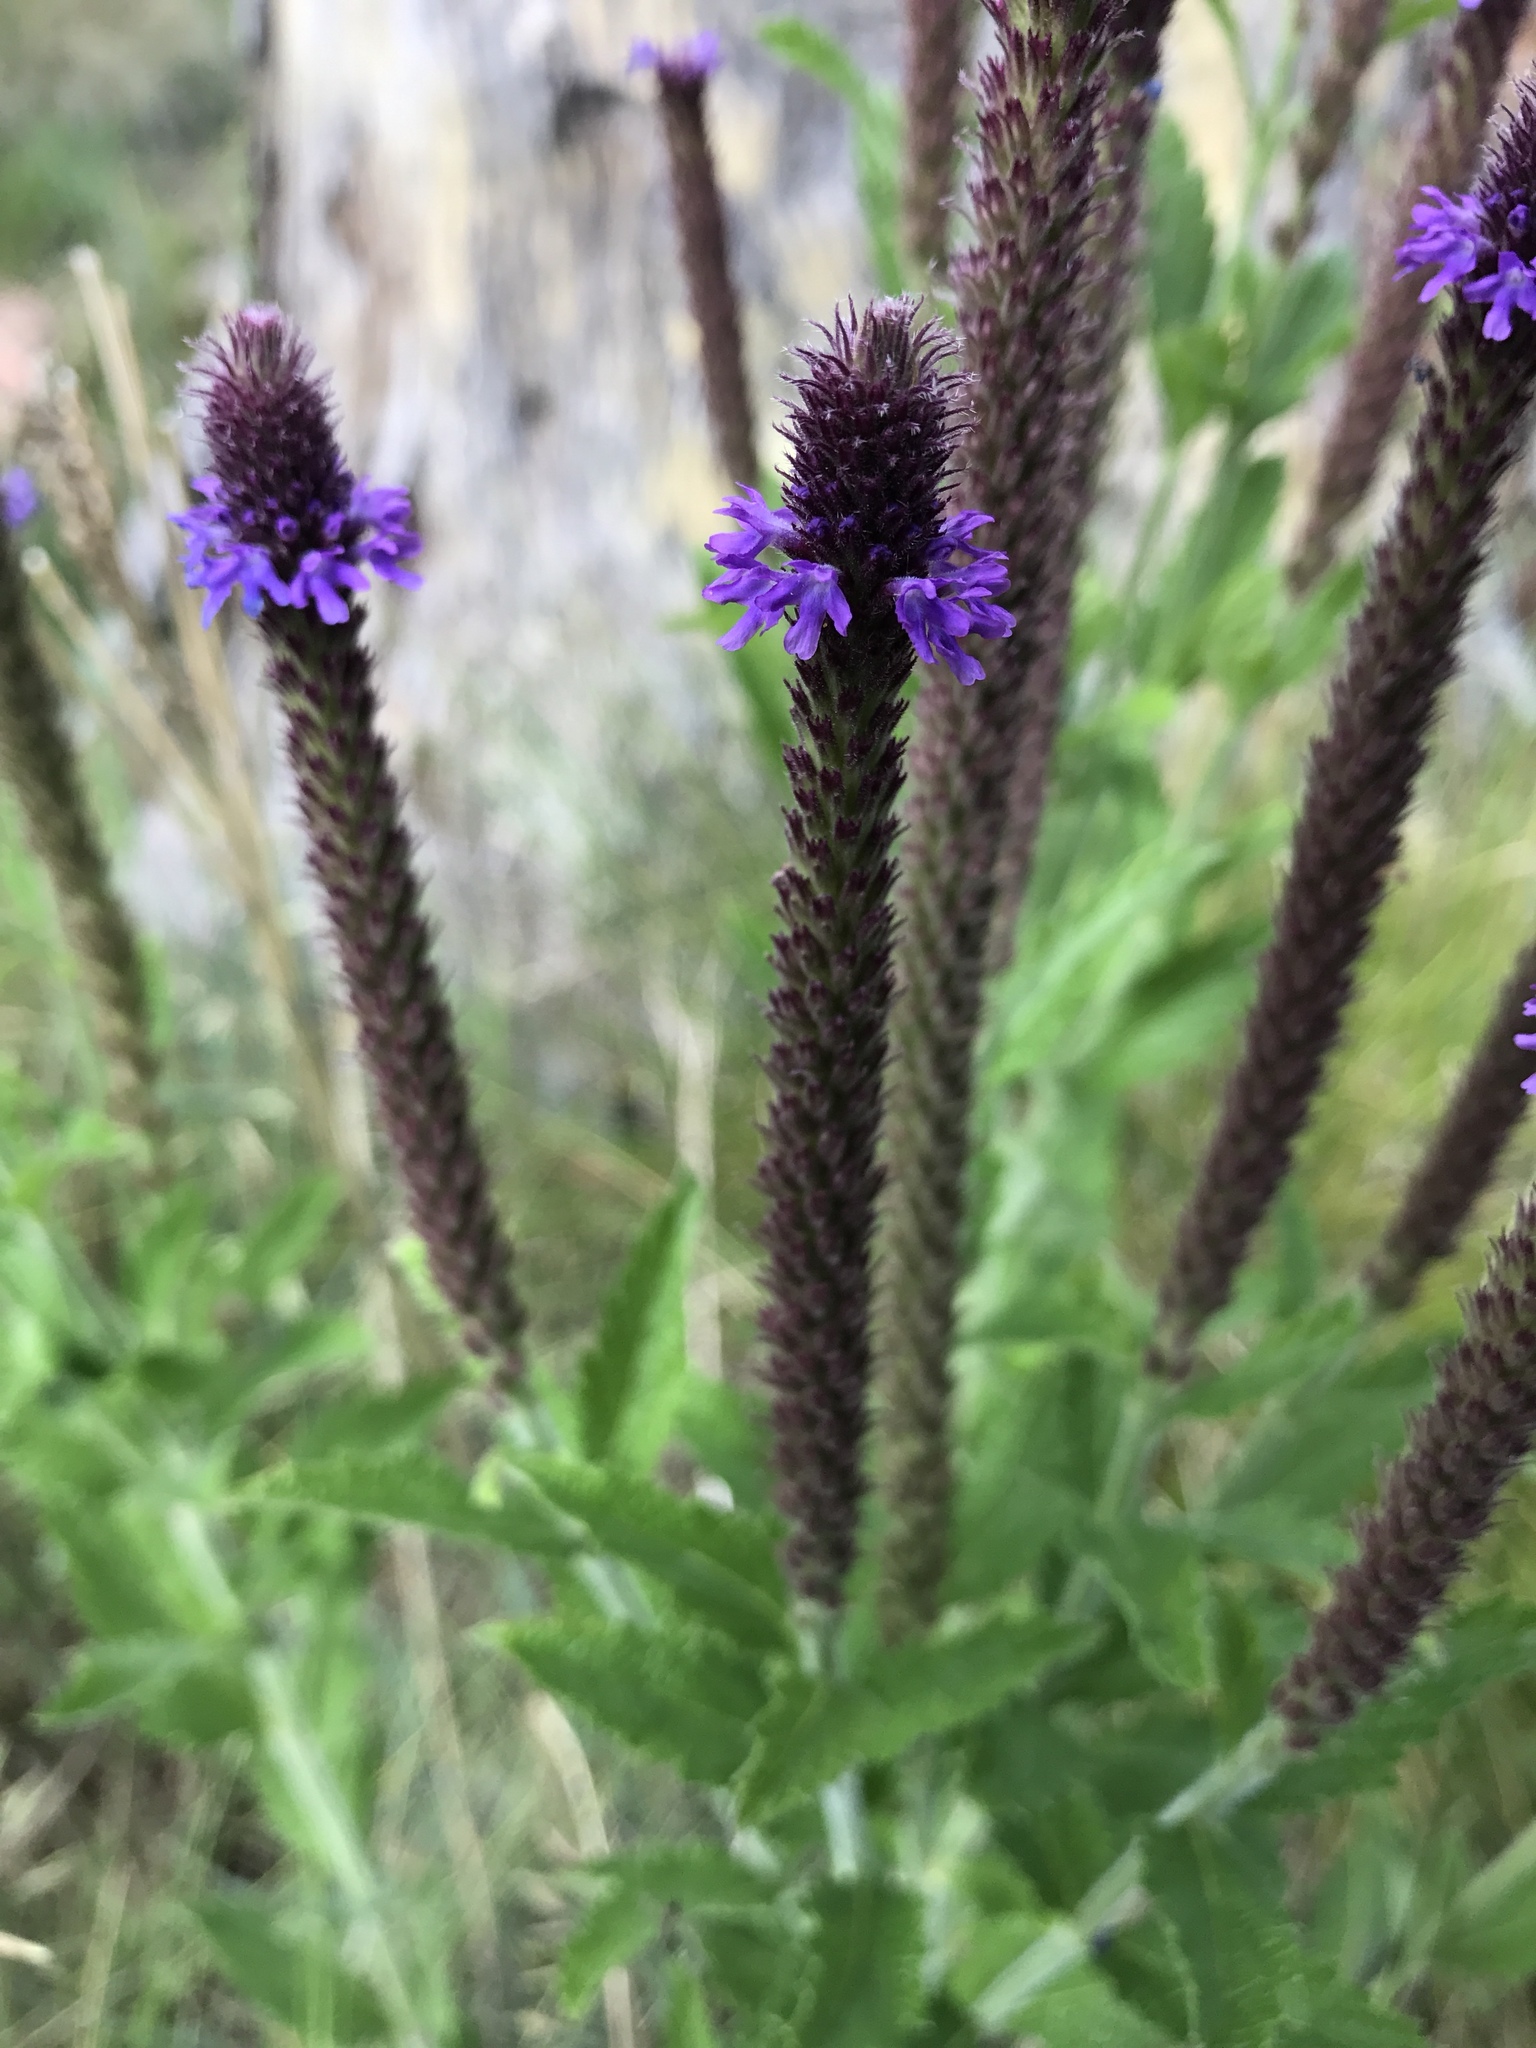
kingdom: Plantae
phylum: Tracheophyta
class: Magnoliopsida
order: Lamiales
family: Verbenaceae
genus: Verbena
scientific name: Verbena macdougalii
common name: New mexico vervain
